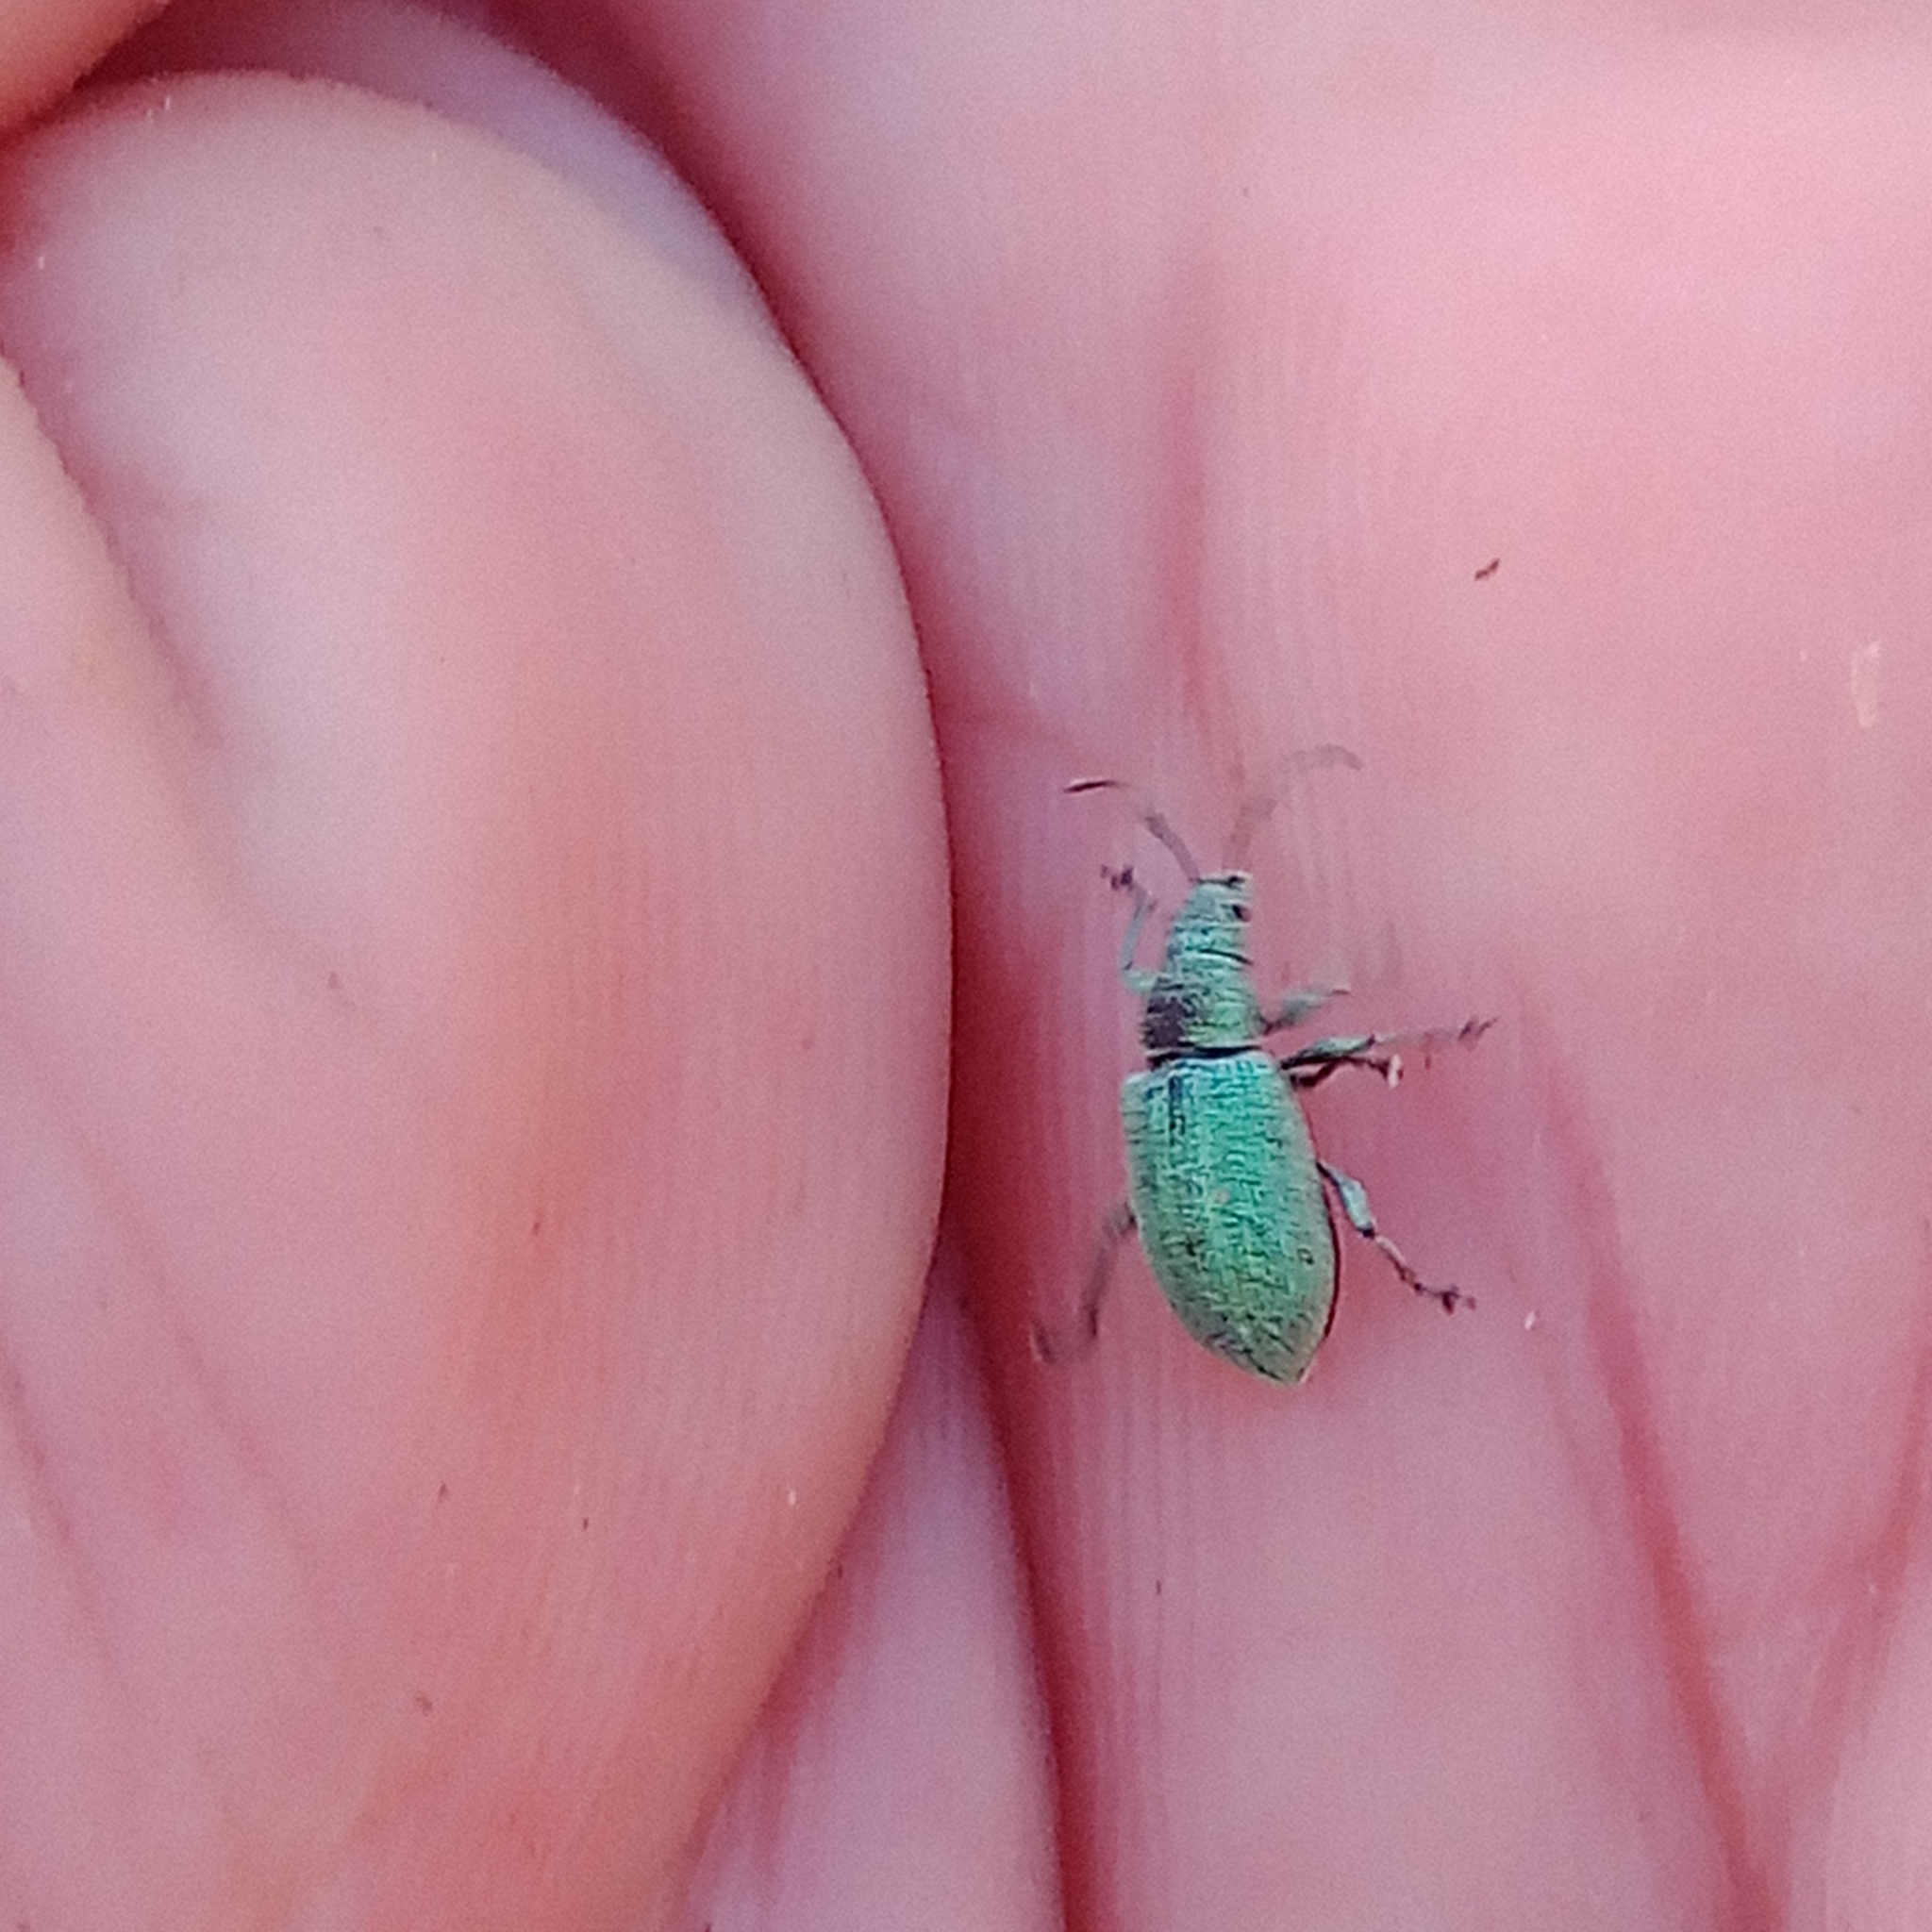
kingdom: Animalia
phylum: Arthropoda
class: Insecta
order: Coleoptera
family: Curculionidae
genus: Phyllobius
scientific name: Phyllobius thalassinus
